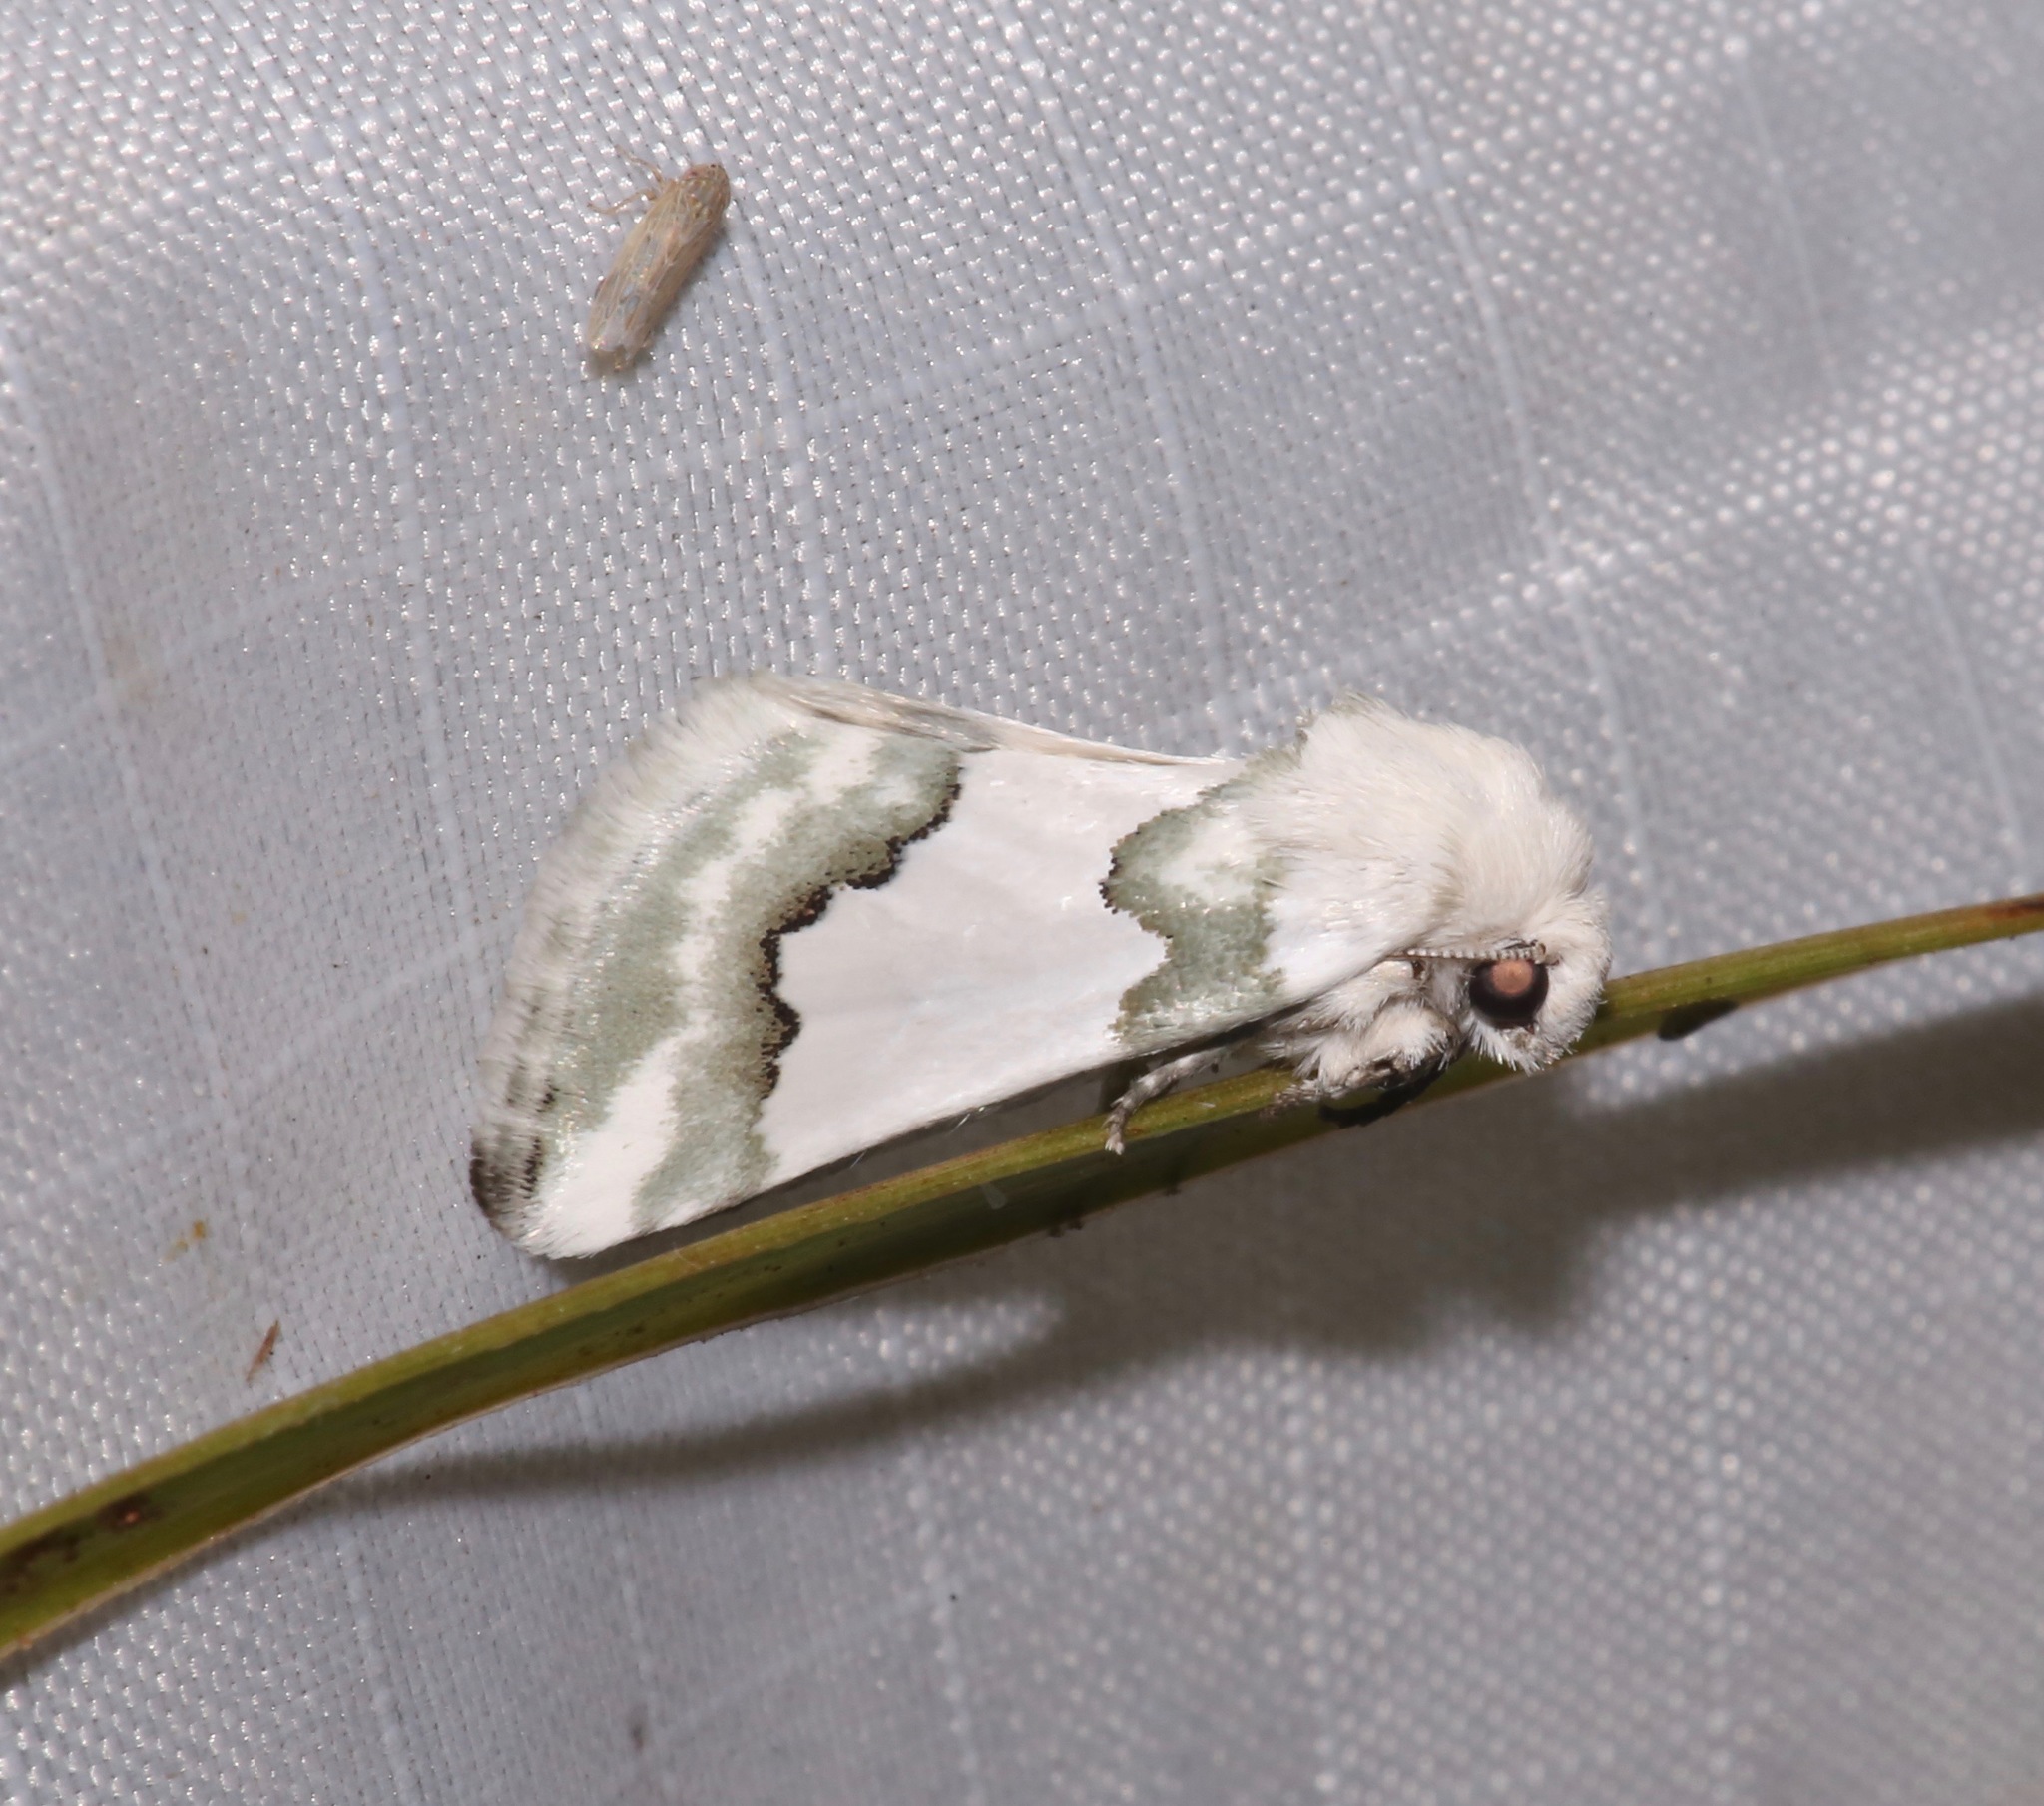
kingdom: Animalia
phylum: Arthropoda
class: Insecta
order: Lepidoptera
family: Noctuidae
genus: Schinia
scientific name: Schinia hulstia
